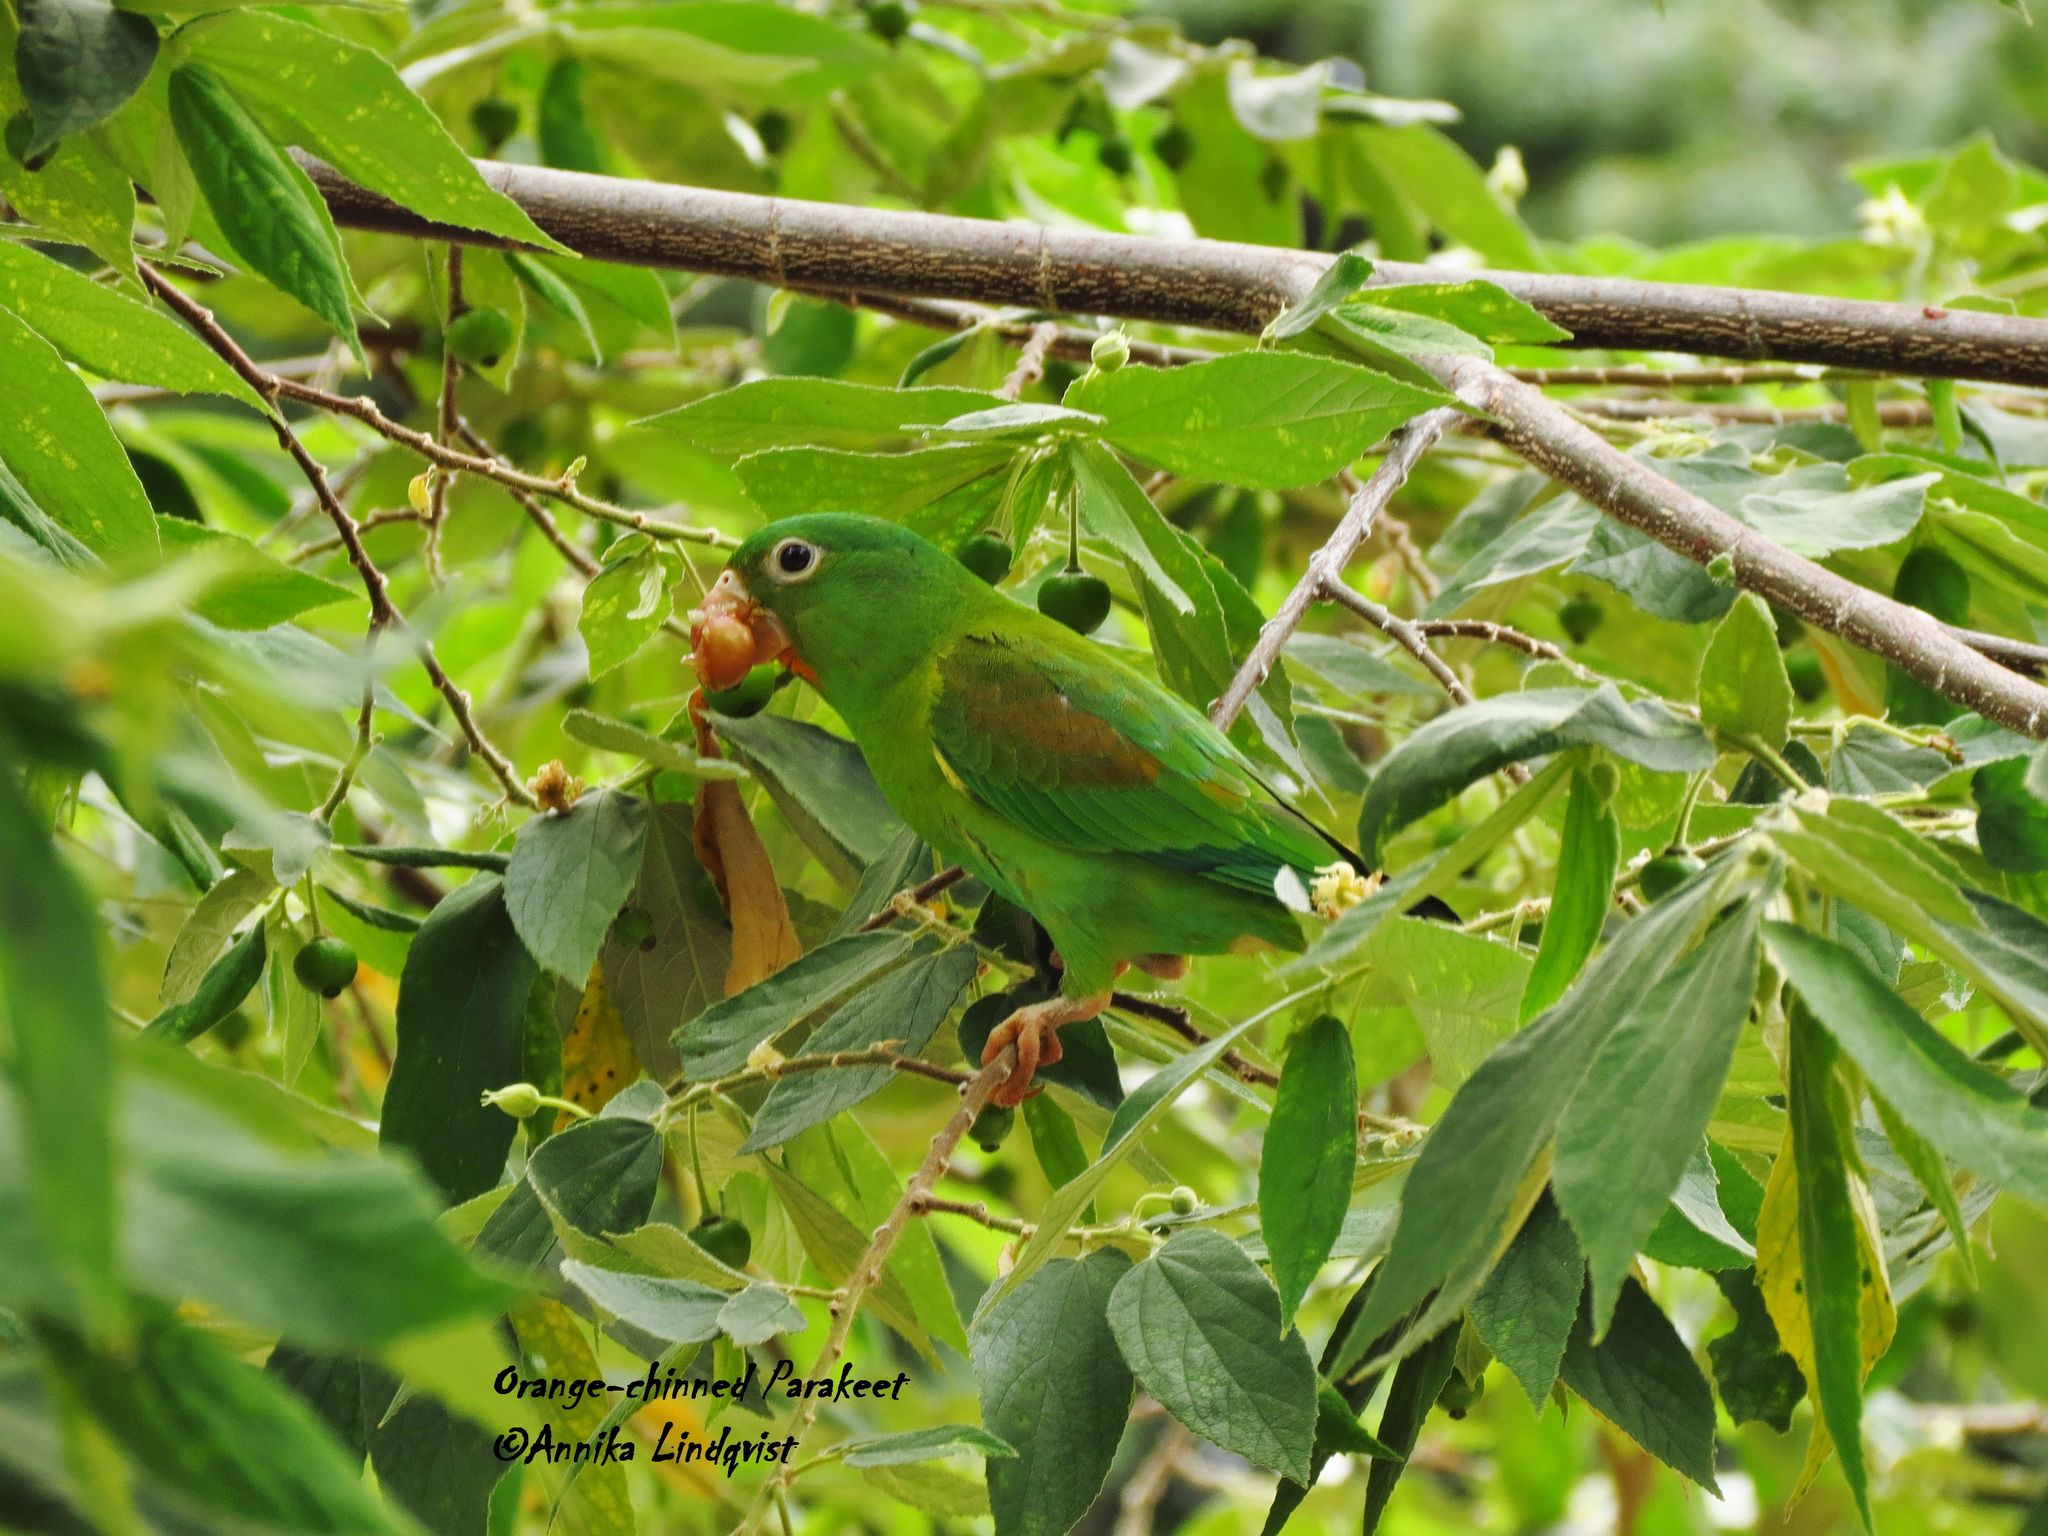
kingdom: Animalia
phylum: Chordata
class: Aves
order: Psittaciformes
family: Psittacidae
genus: Brotogeris
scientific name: Brotogeris jugularis
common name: Orange-chinned parakeet
